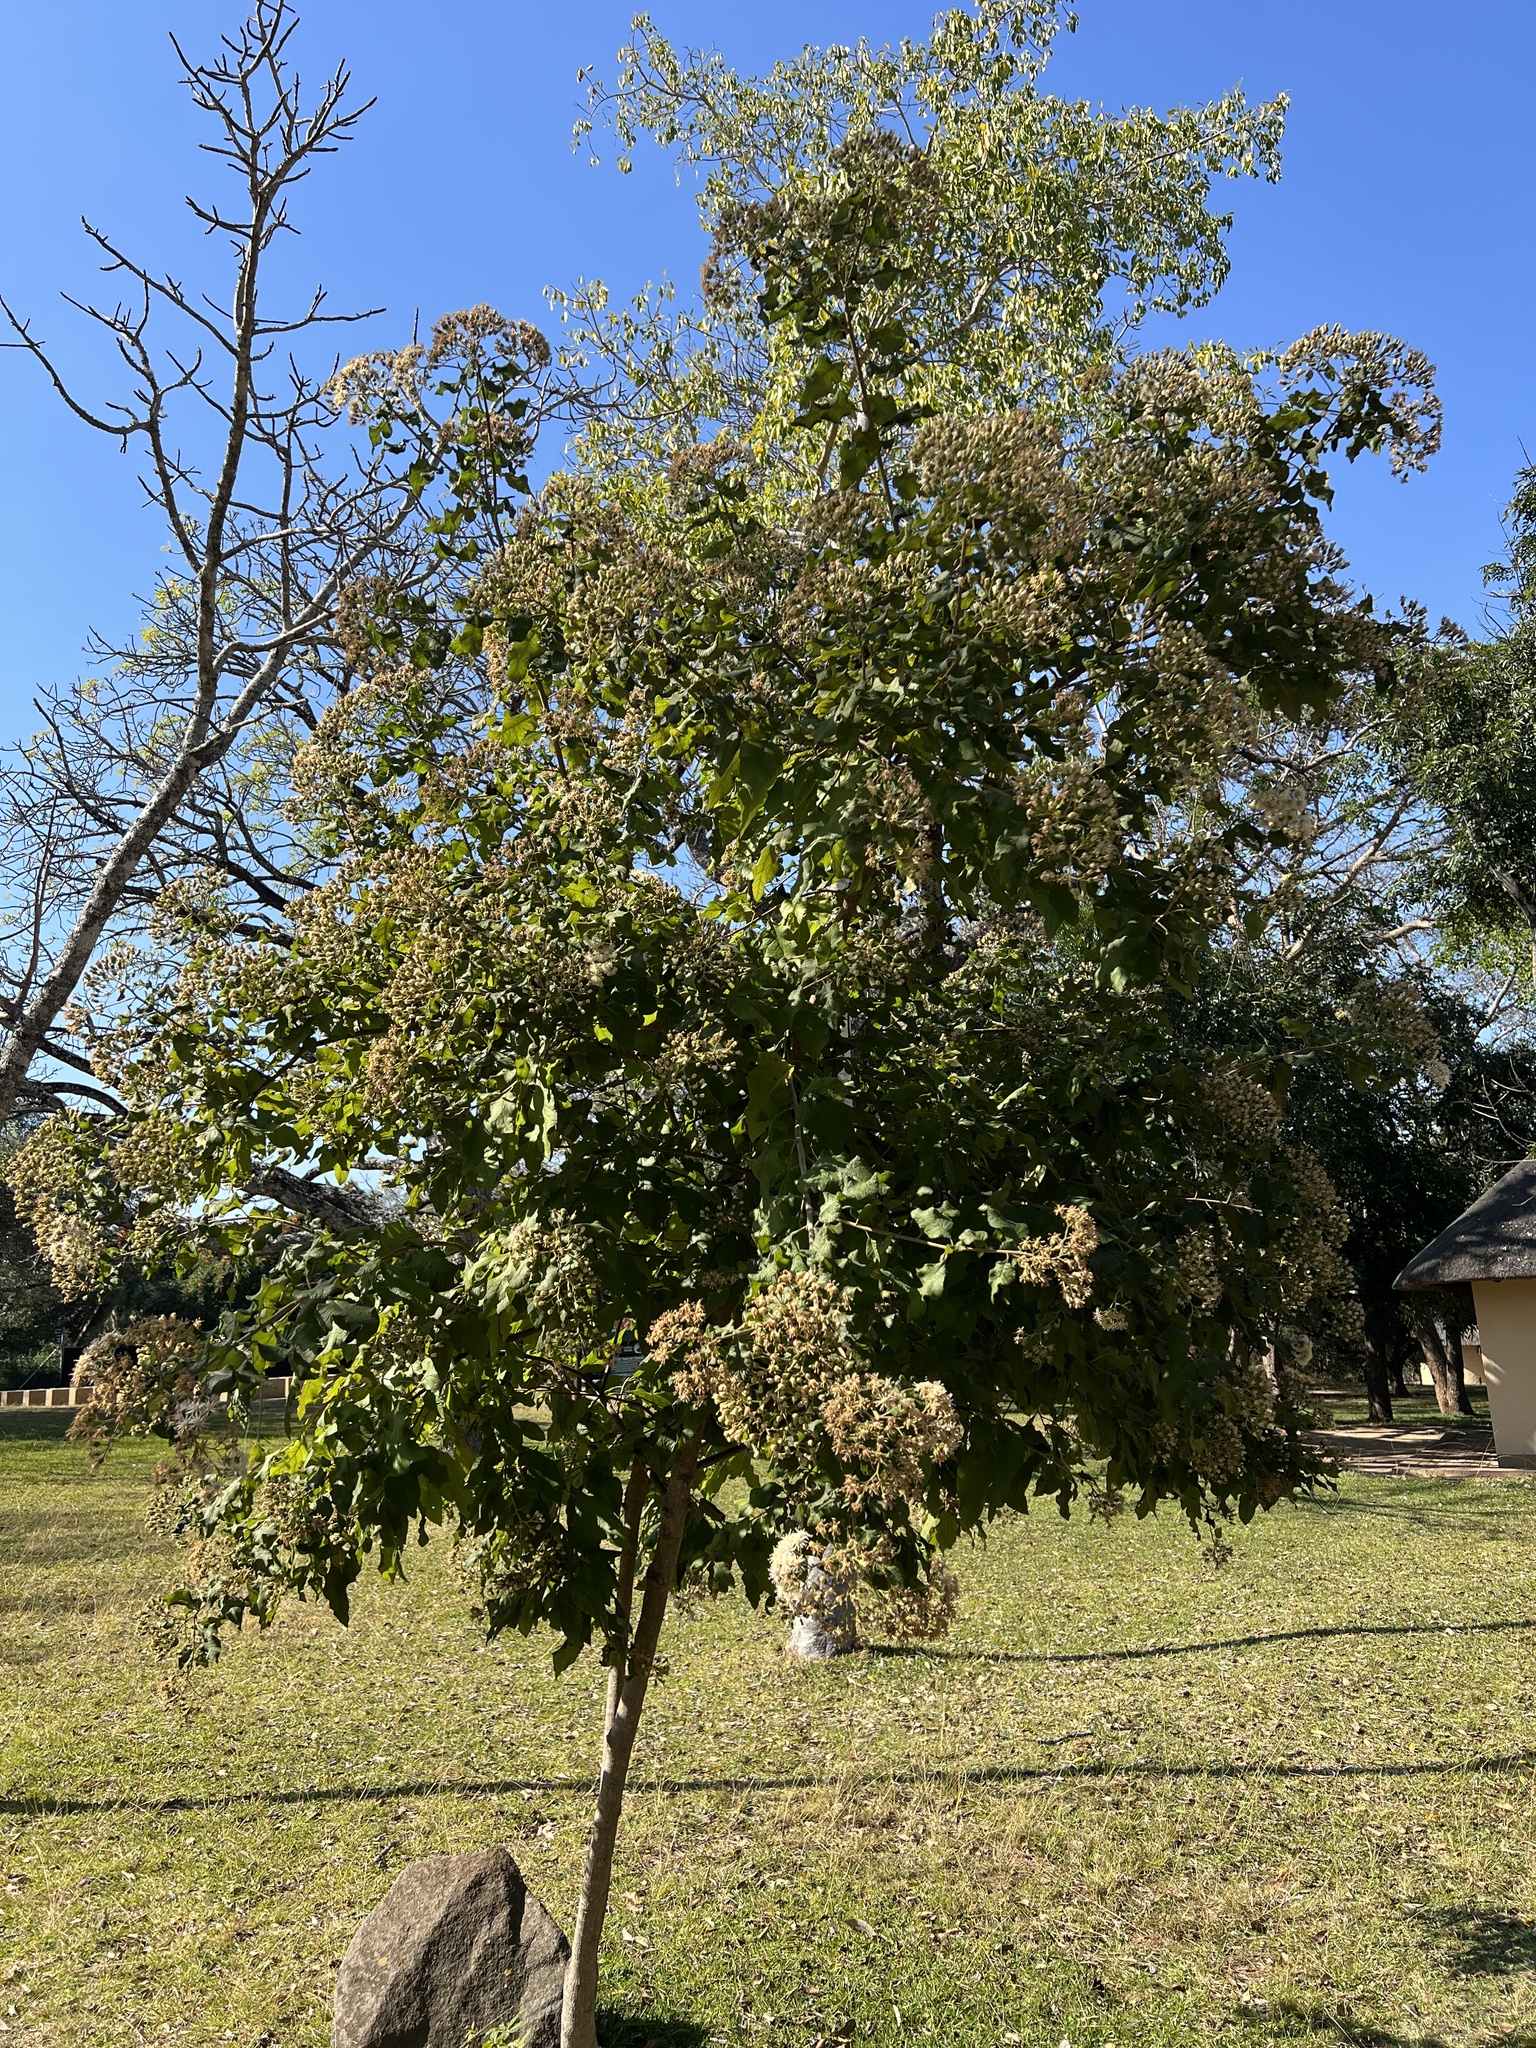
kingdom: Plantae
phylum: Tracheophyta
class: Magnoliopsida
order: Asterales
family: Asteraceae
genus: Vernonia
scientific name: Vernonia colorata
